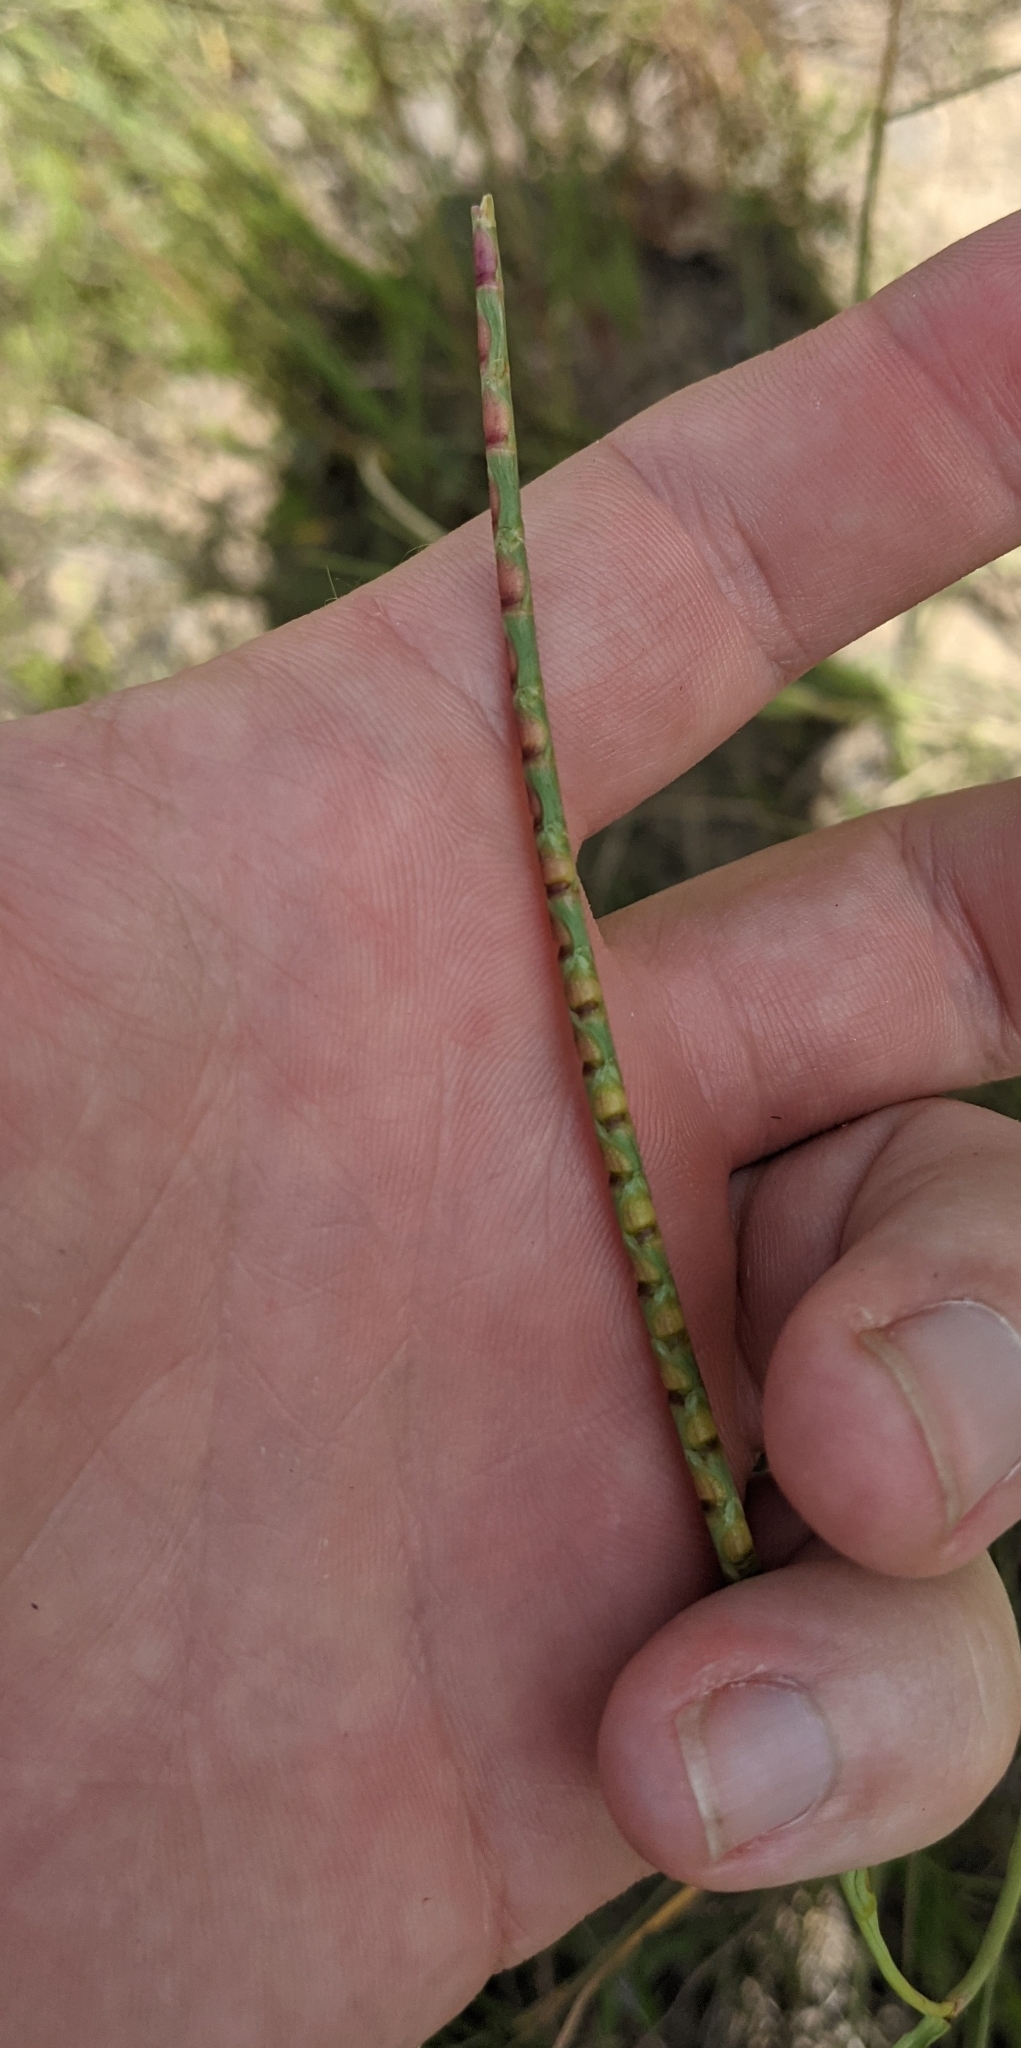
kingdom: Plantae
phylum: Tracheophyta
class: Liliopsida
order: Poales
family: Poaceae
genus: Rottboellia
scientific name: Rottboellia campestris
